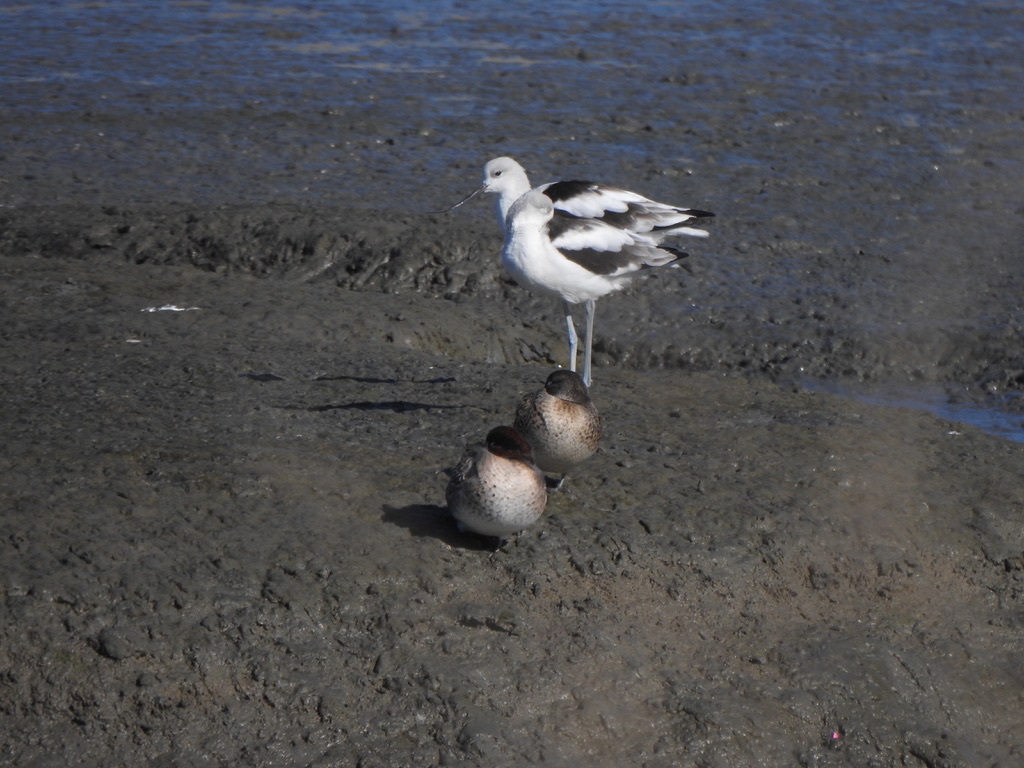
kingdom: Animalia
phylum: Chordata
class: Aves
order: Anseriformes
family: Anatidae
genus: Anas
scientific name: Anas crecca
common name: Eurasian teal
